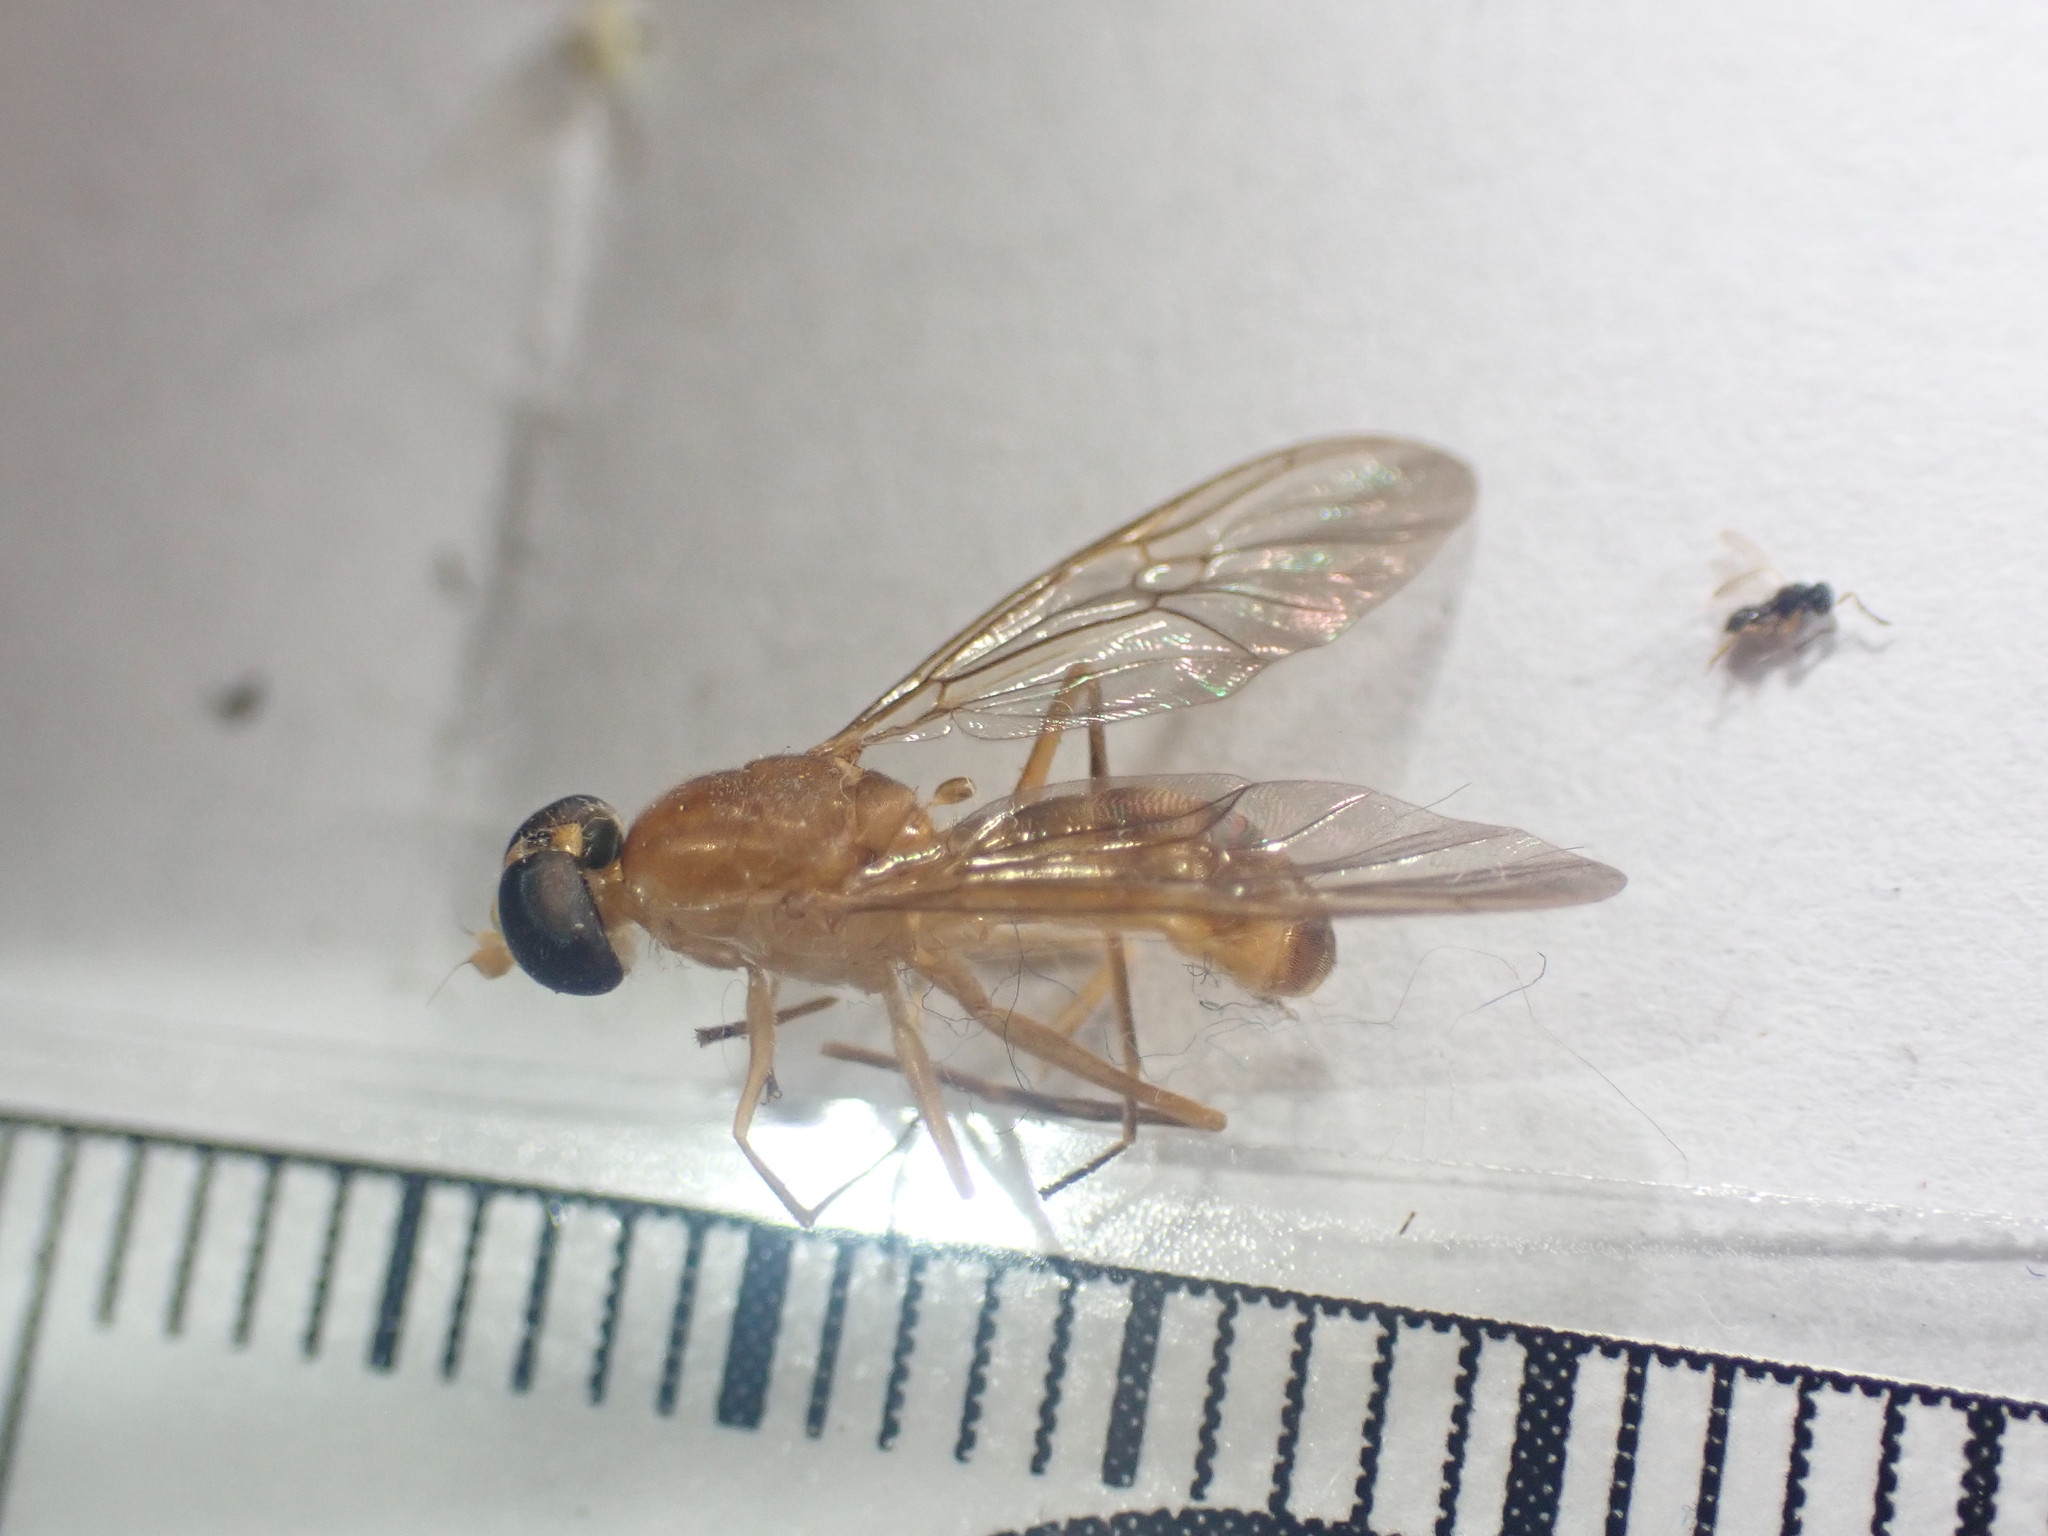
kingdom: Animalia
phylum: Arthropoda
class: Insecta
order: Diptera
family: Stratiomyidae
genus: Ptecticus
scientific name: Ptecticus trivittatus
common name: Compost fly
